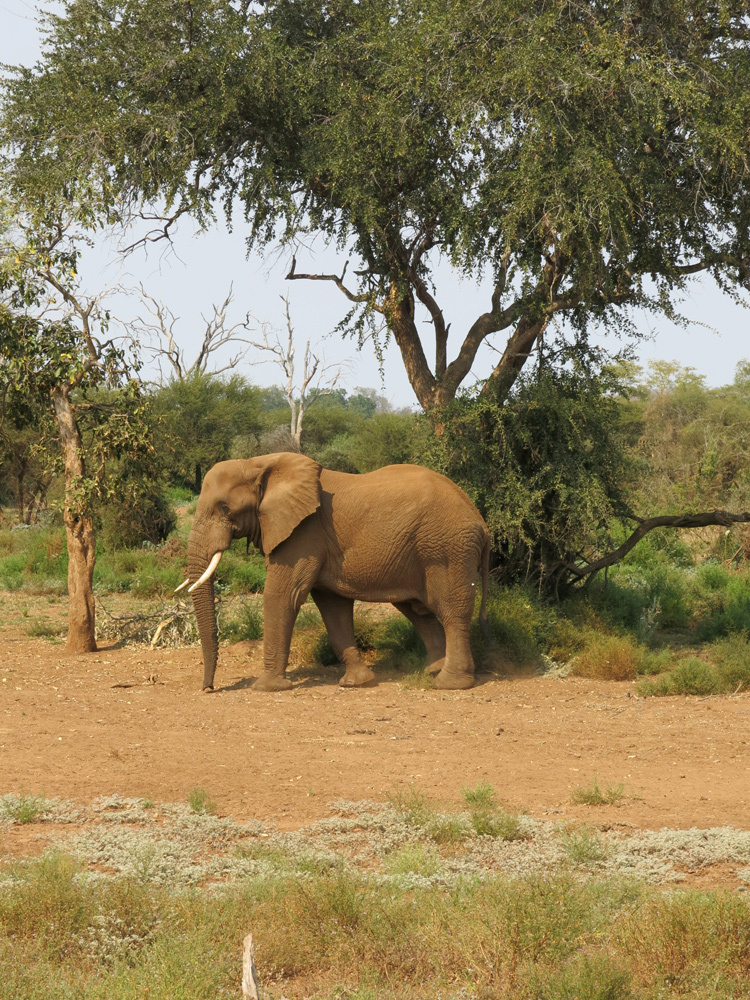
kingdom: Animalia
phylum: Chordata
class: Mammalia
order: Proboscidea
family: Elephantidae
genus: Loxodonta
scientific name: Loxodonta africana
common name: African elephant
